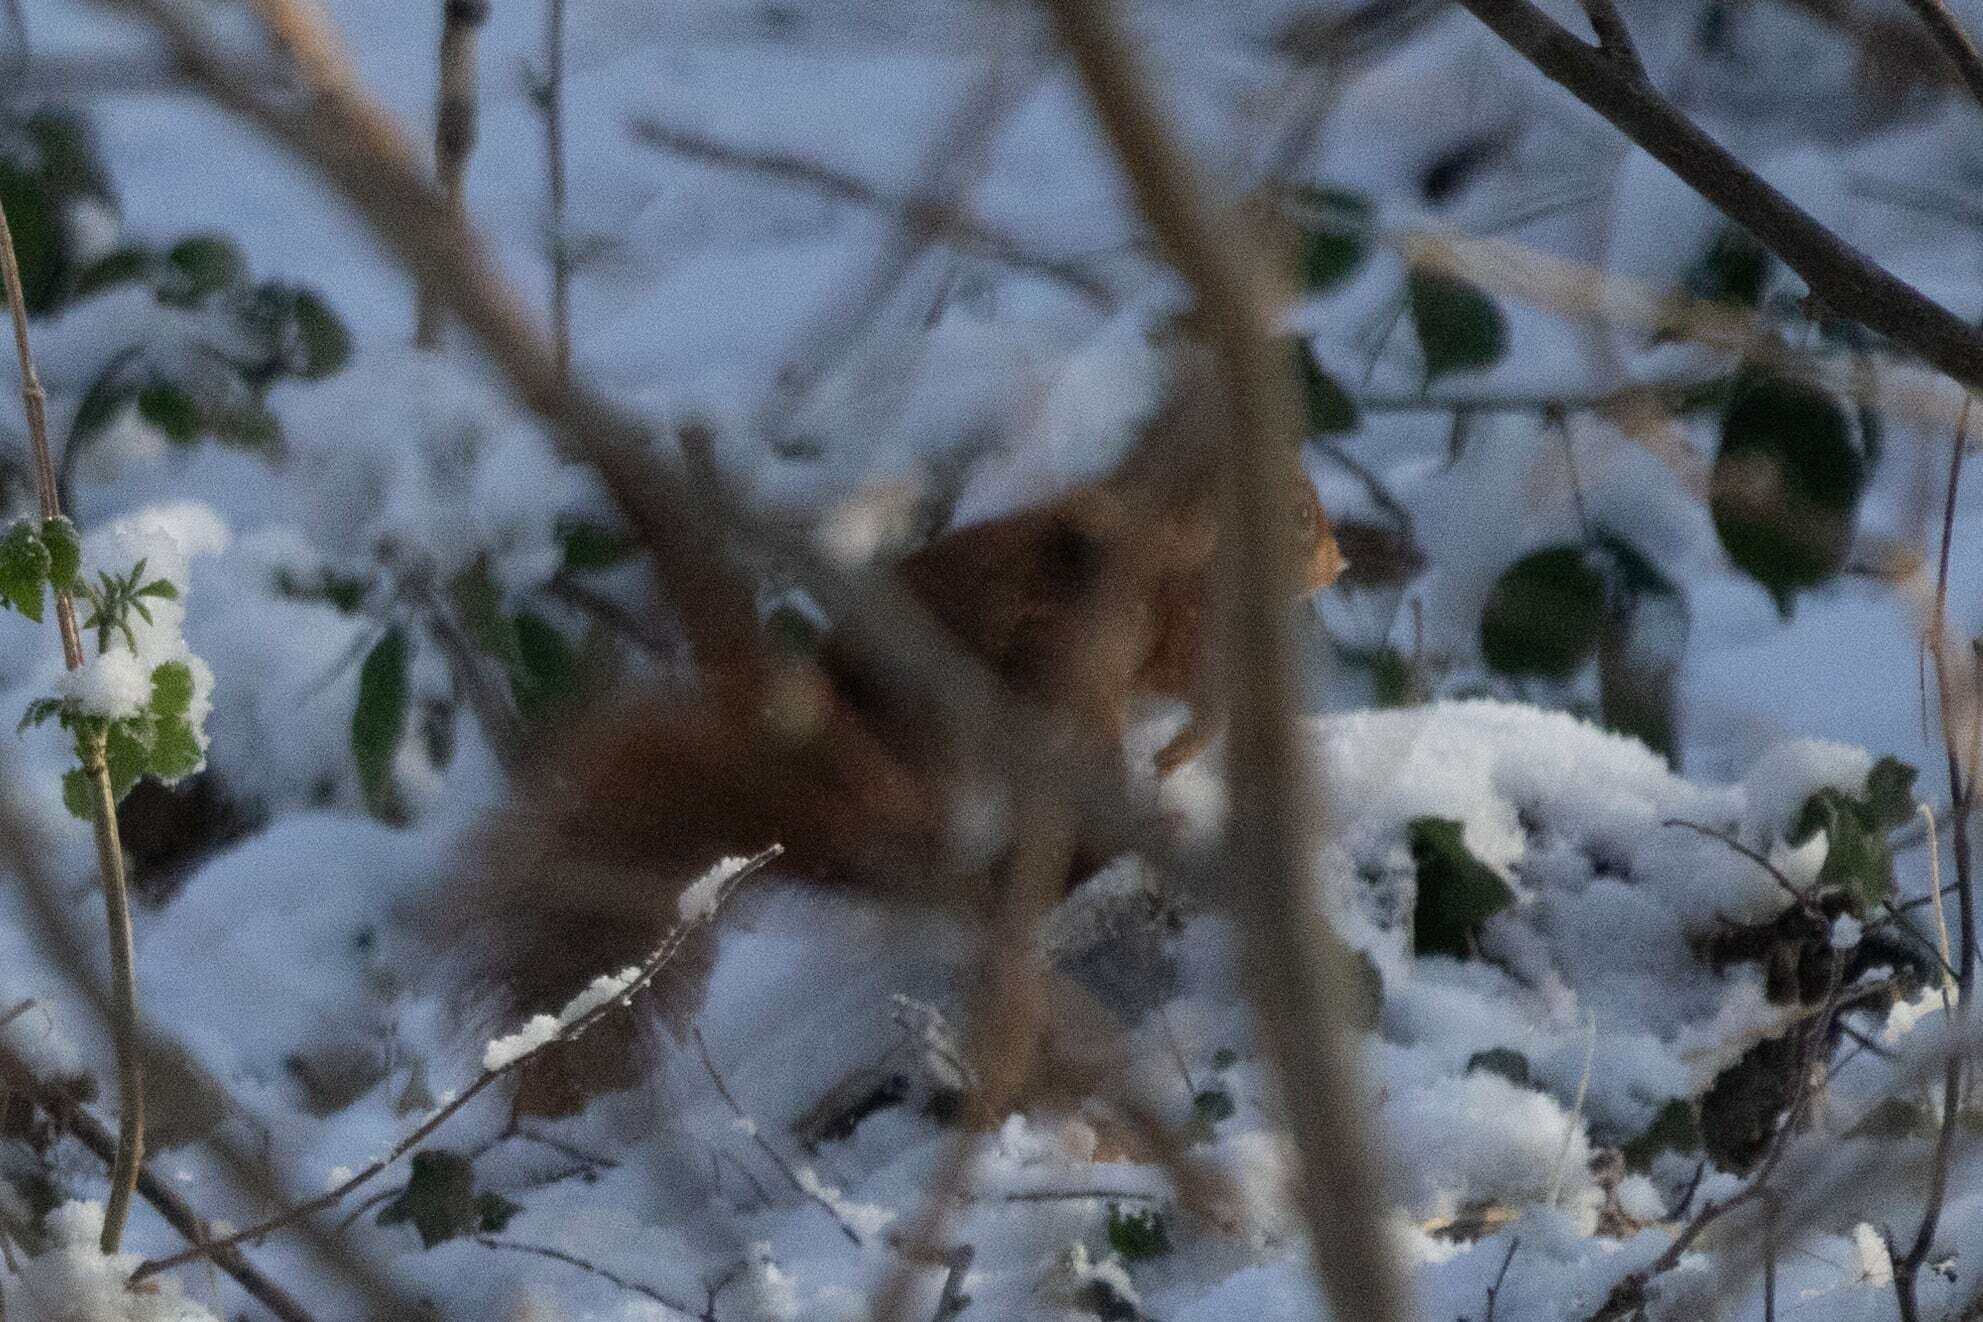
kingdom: Animalia
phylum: Chordata
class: Mammalia
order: Rodentia
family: Sciuridae
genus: Sciurus
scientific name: Sciurus vulgaris
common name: Eurasian red squirrel
